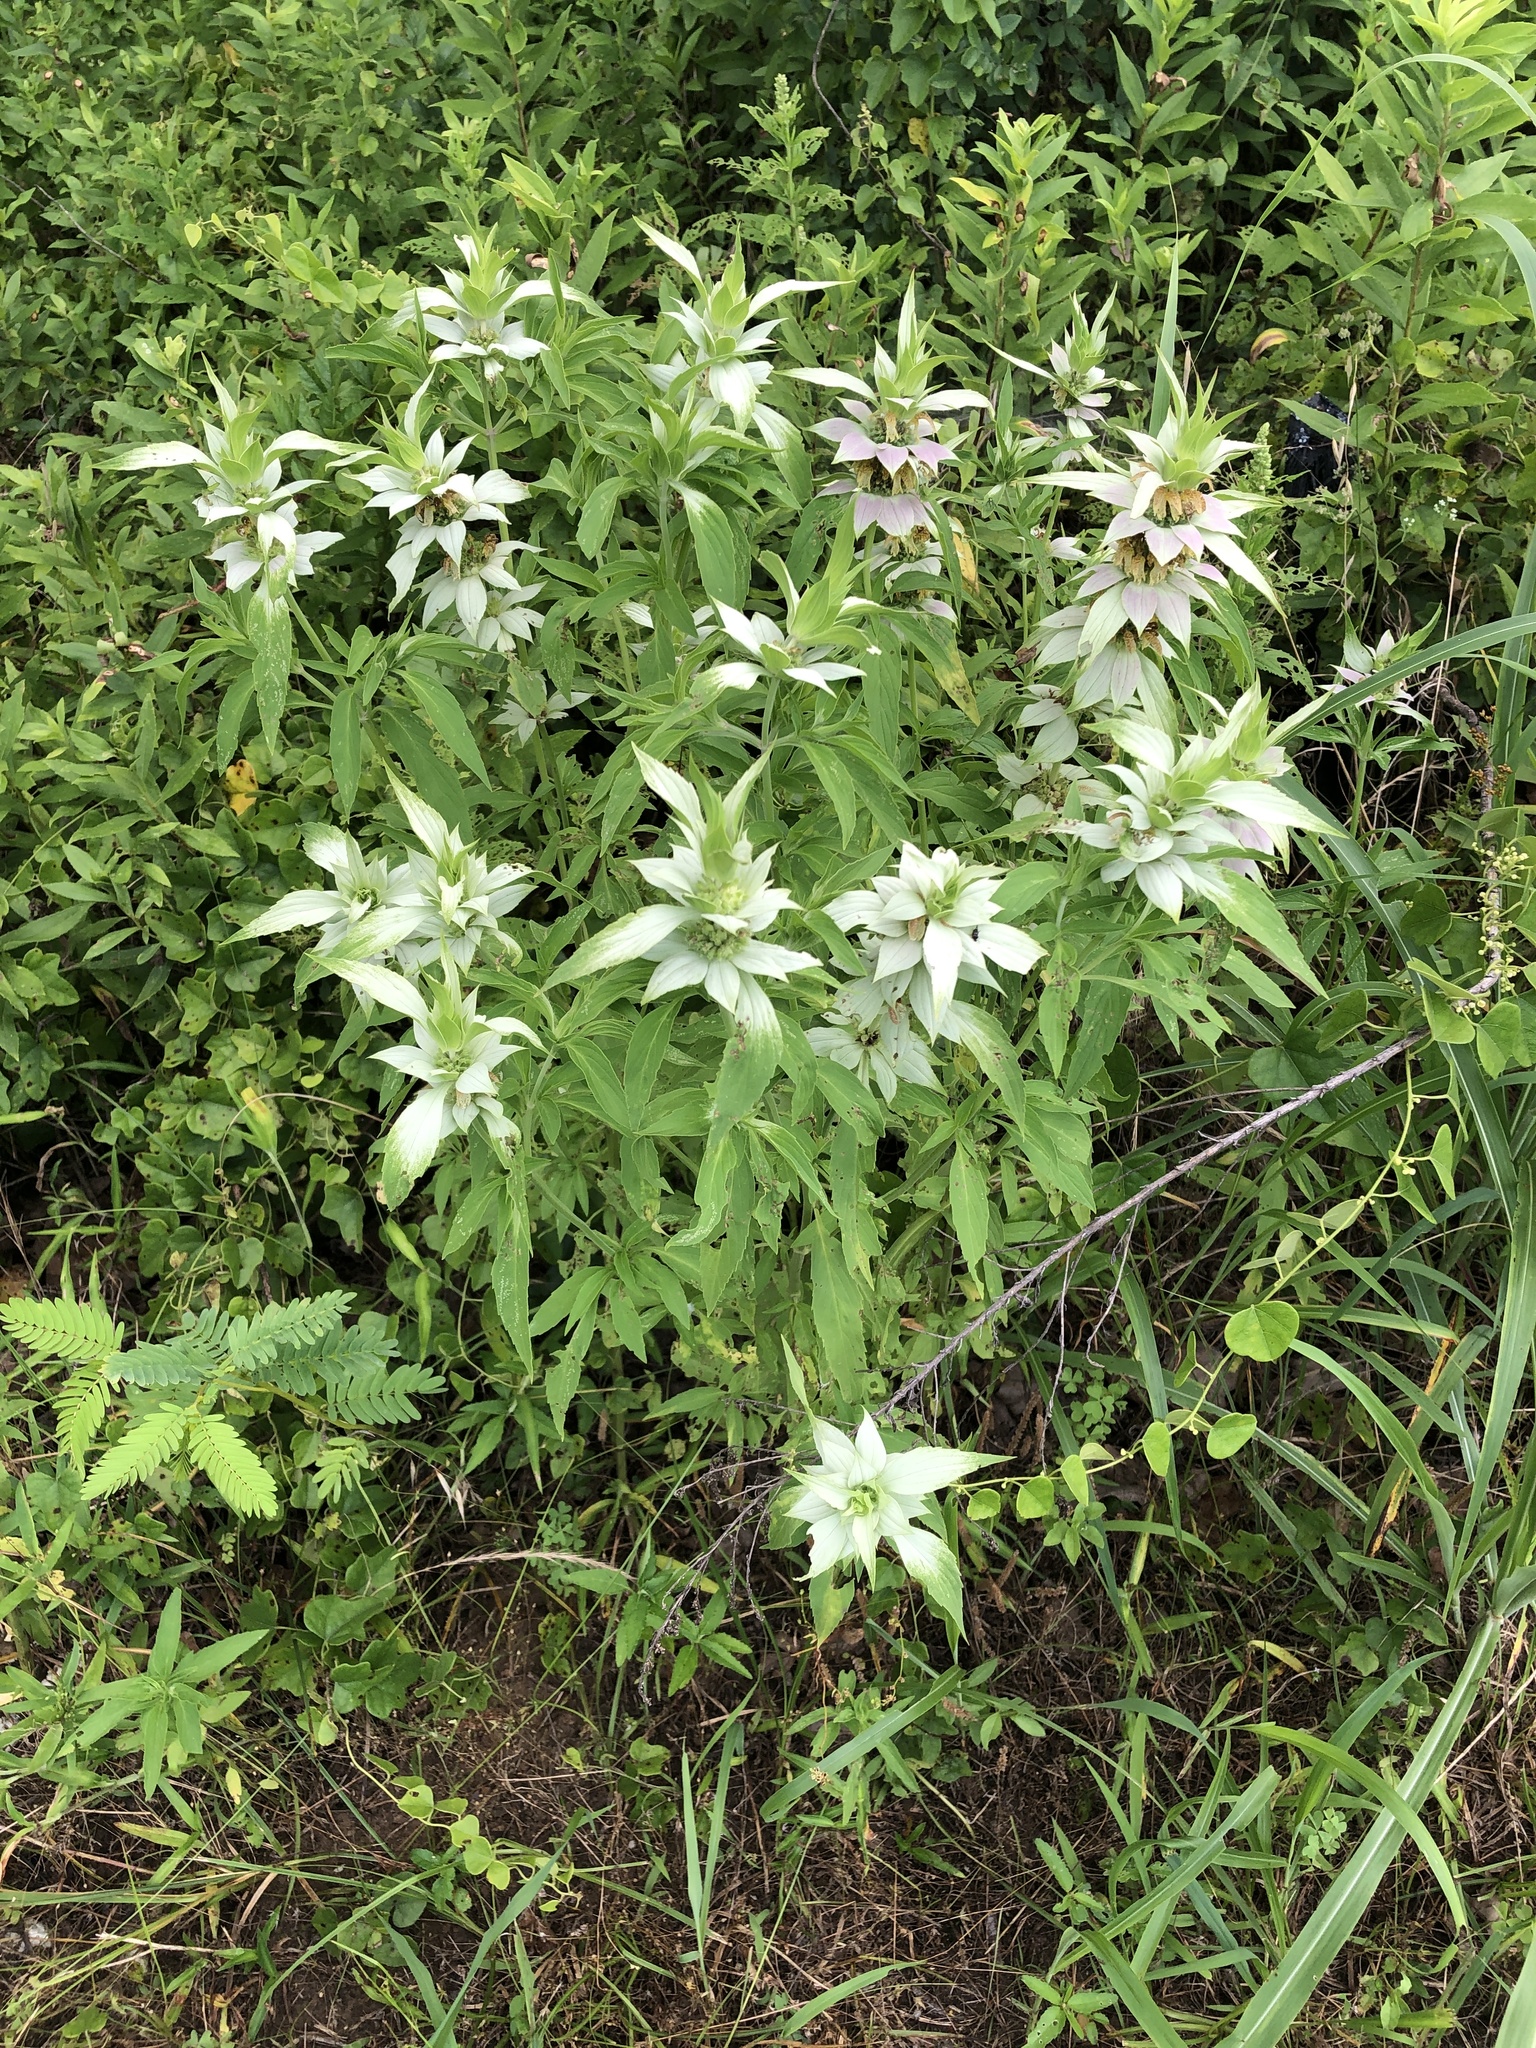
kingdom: Plantae
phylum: Tracheophyta
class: Magnoliopsida
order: Lamiales
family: Lamiaceae
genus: Monarda
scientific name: Monarda punctata
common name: Dotted monarda
